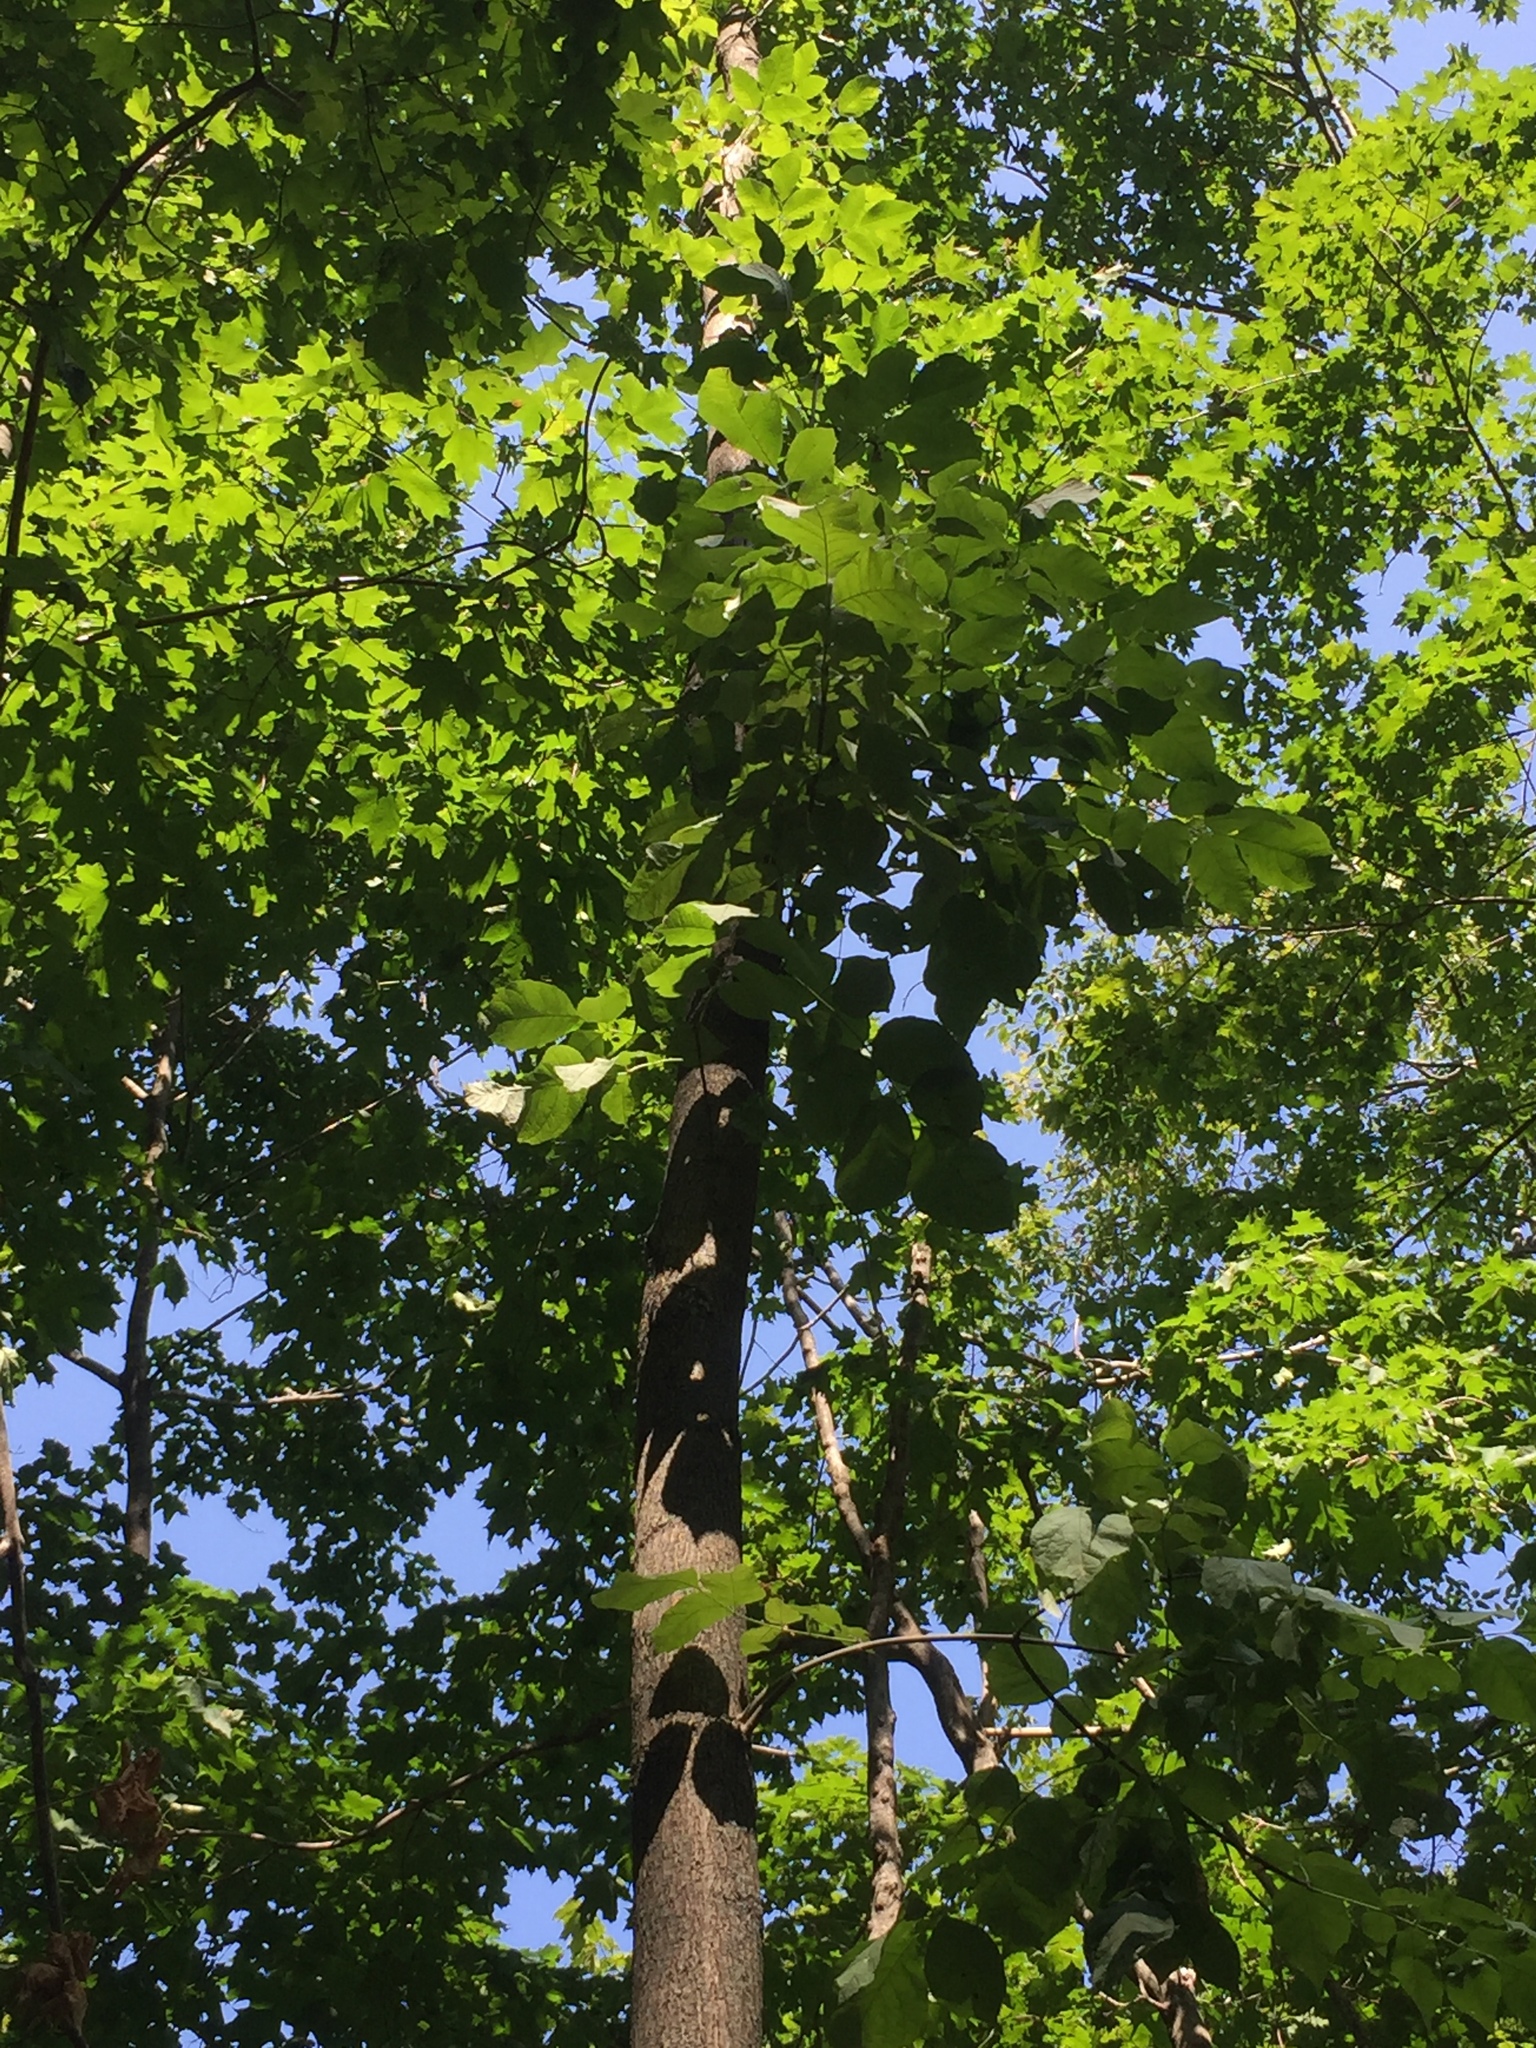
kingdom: Plantae
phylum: Tracheophyta
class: Magnoliopsida
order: Lamiales
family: Oleaceae
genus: Fraxinus
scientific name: Fraxinus americana
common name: White ash
